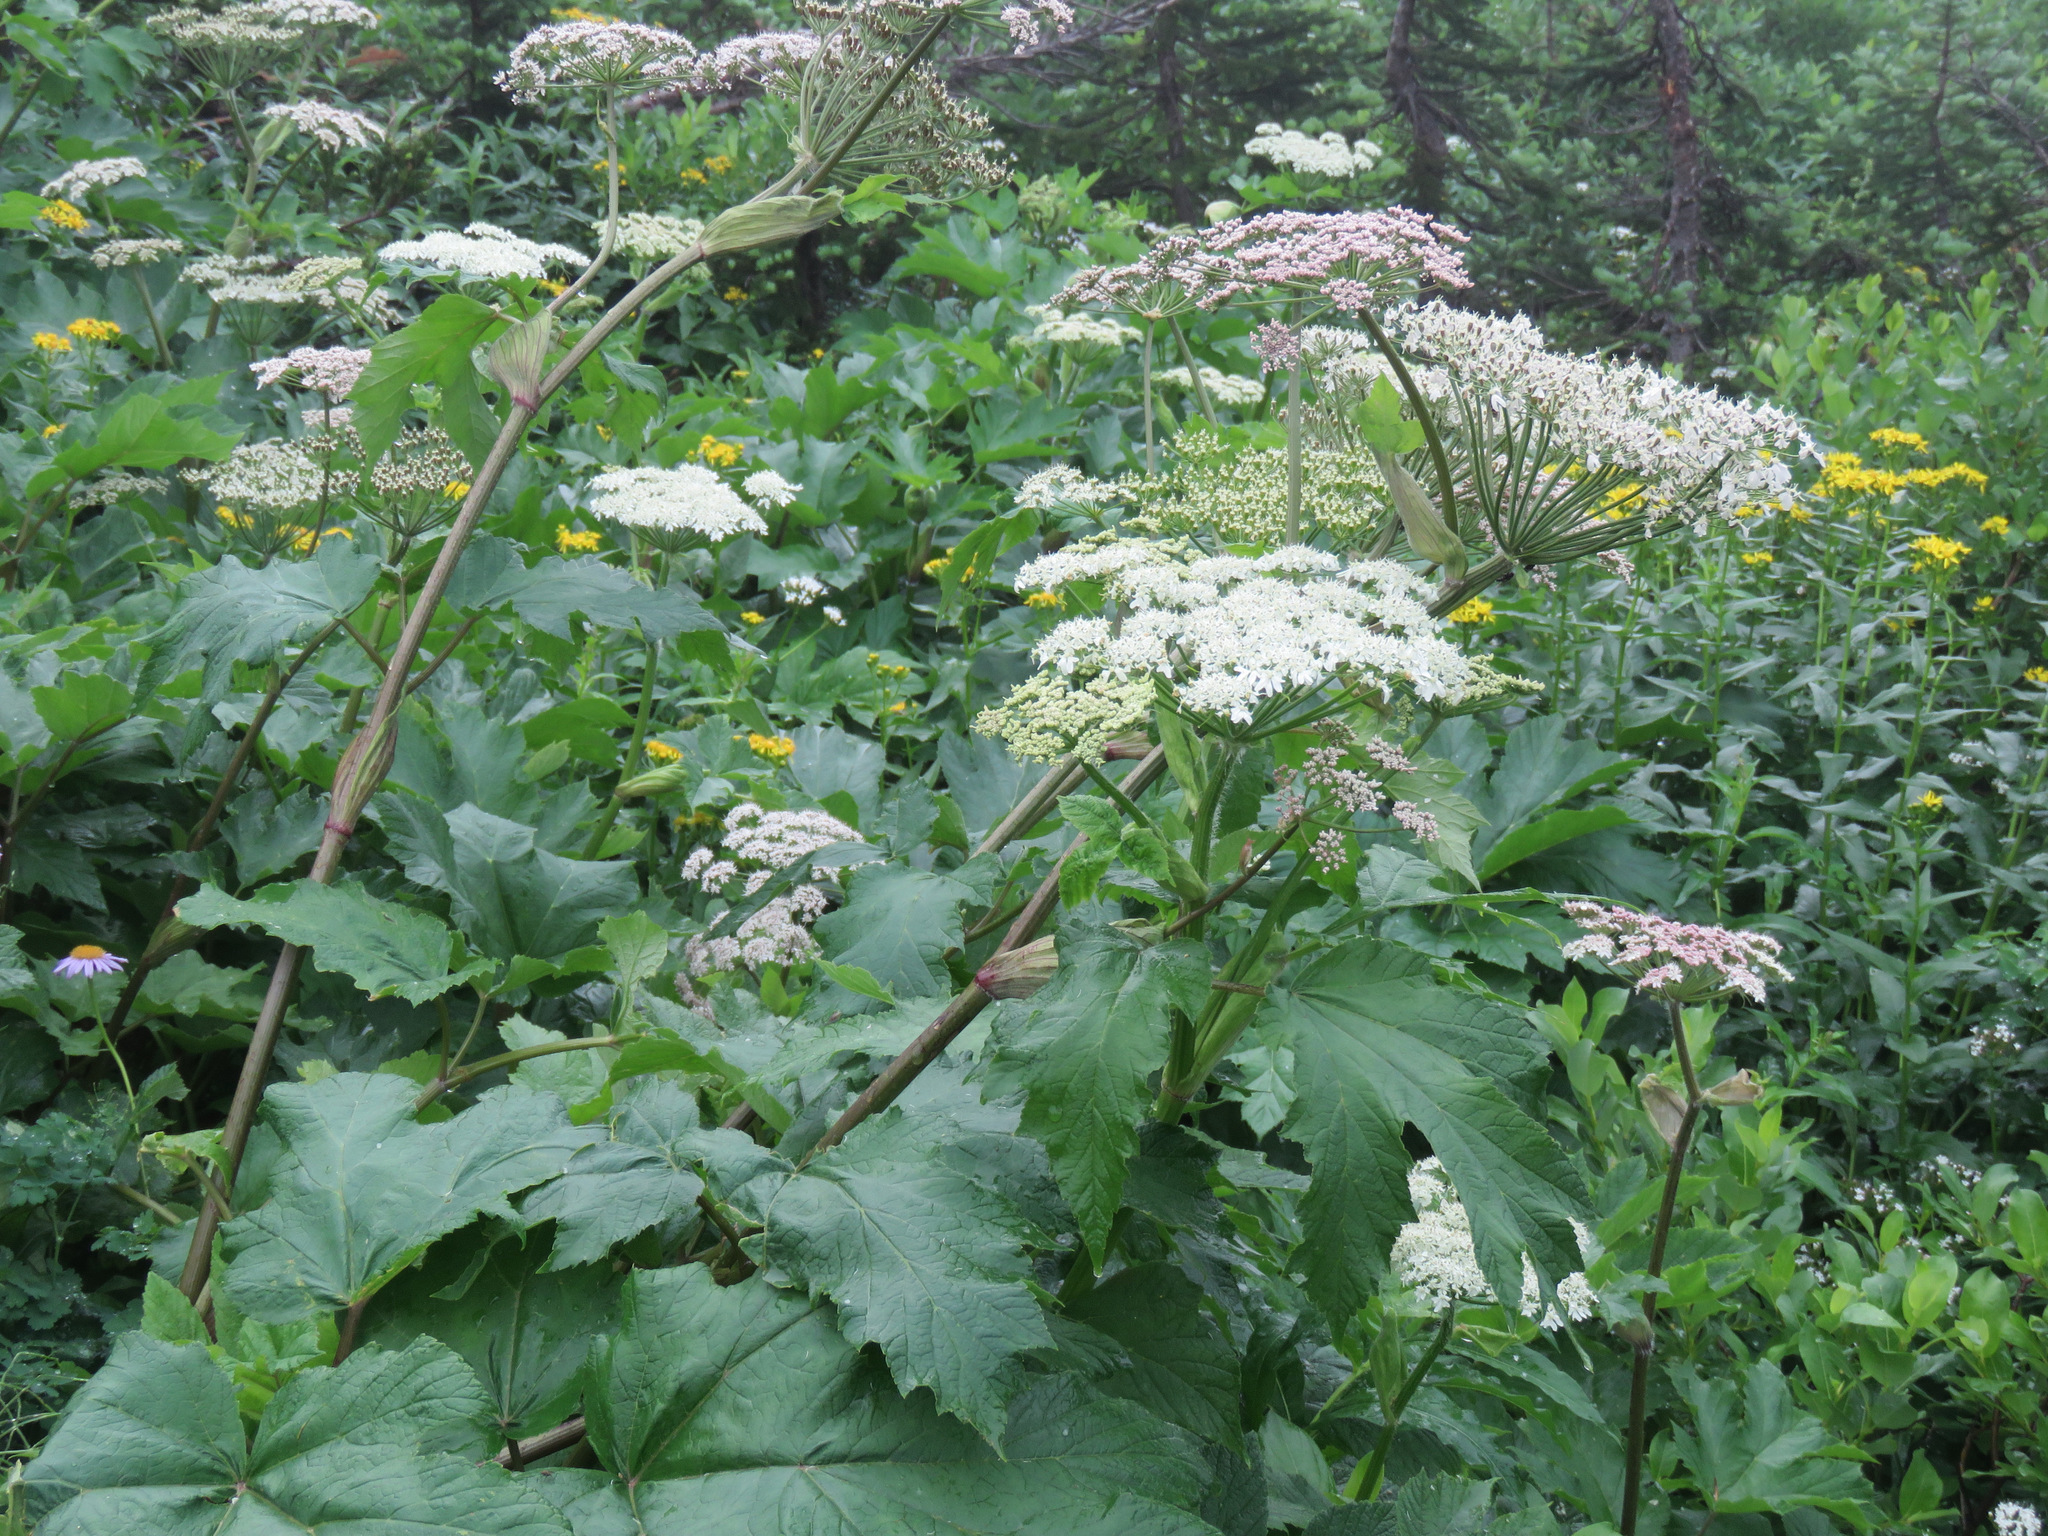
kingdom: Plantae
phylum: Tracheophyta
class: Magnoliopsida
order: Apiales
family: Apiaceae
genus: Heracleum
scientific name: Heracleum maximum
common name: American cow parsnip
